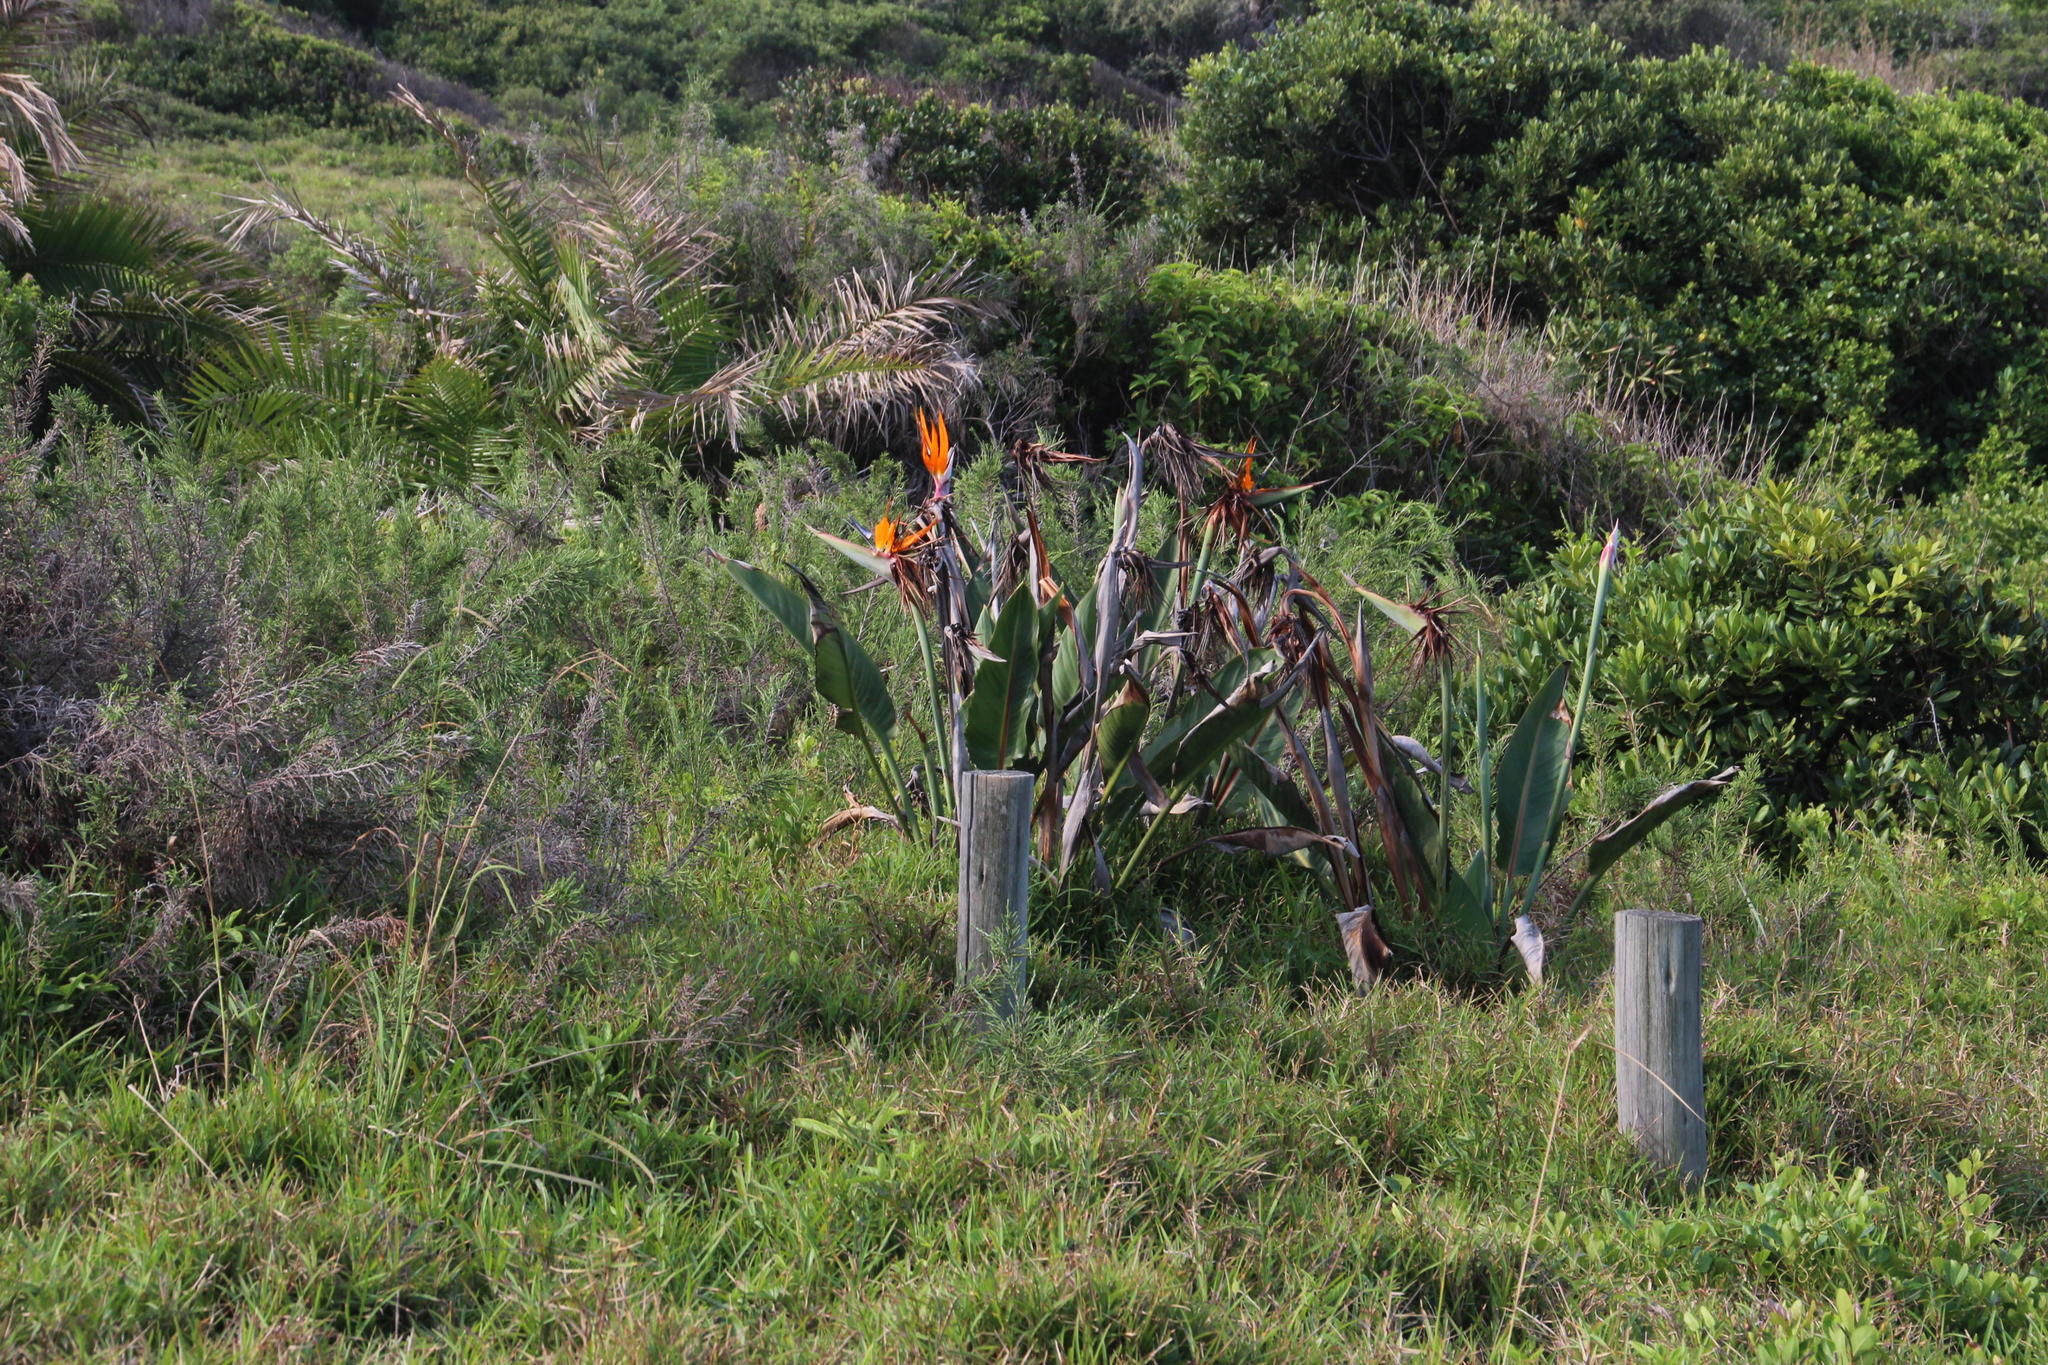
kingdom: Plantae
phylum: Tracheophyta
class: Liliopsida
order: Zingiberales
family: Strelitziaceae
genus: Strelitzia
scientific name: Strelitzia reginae
